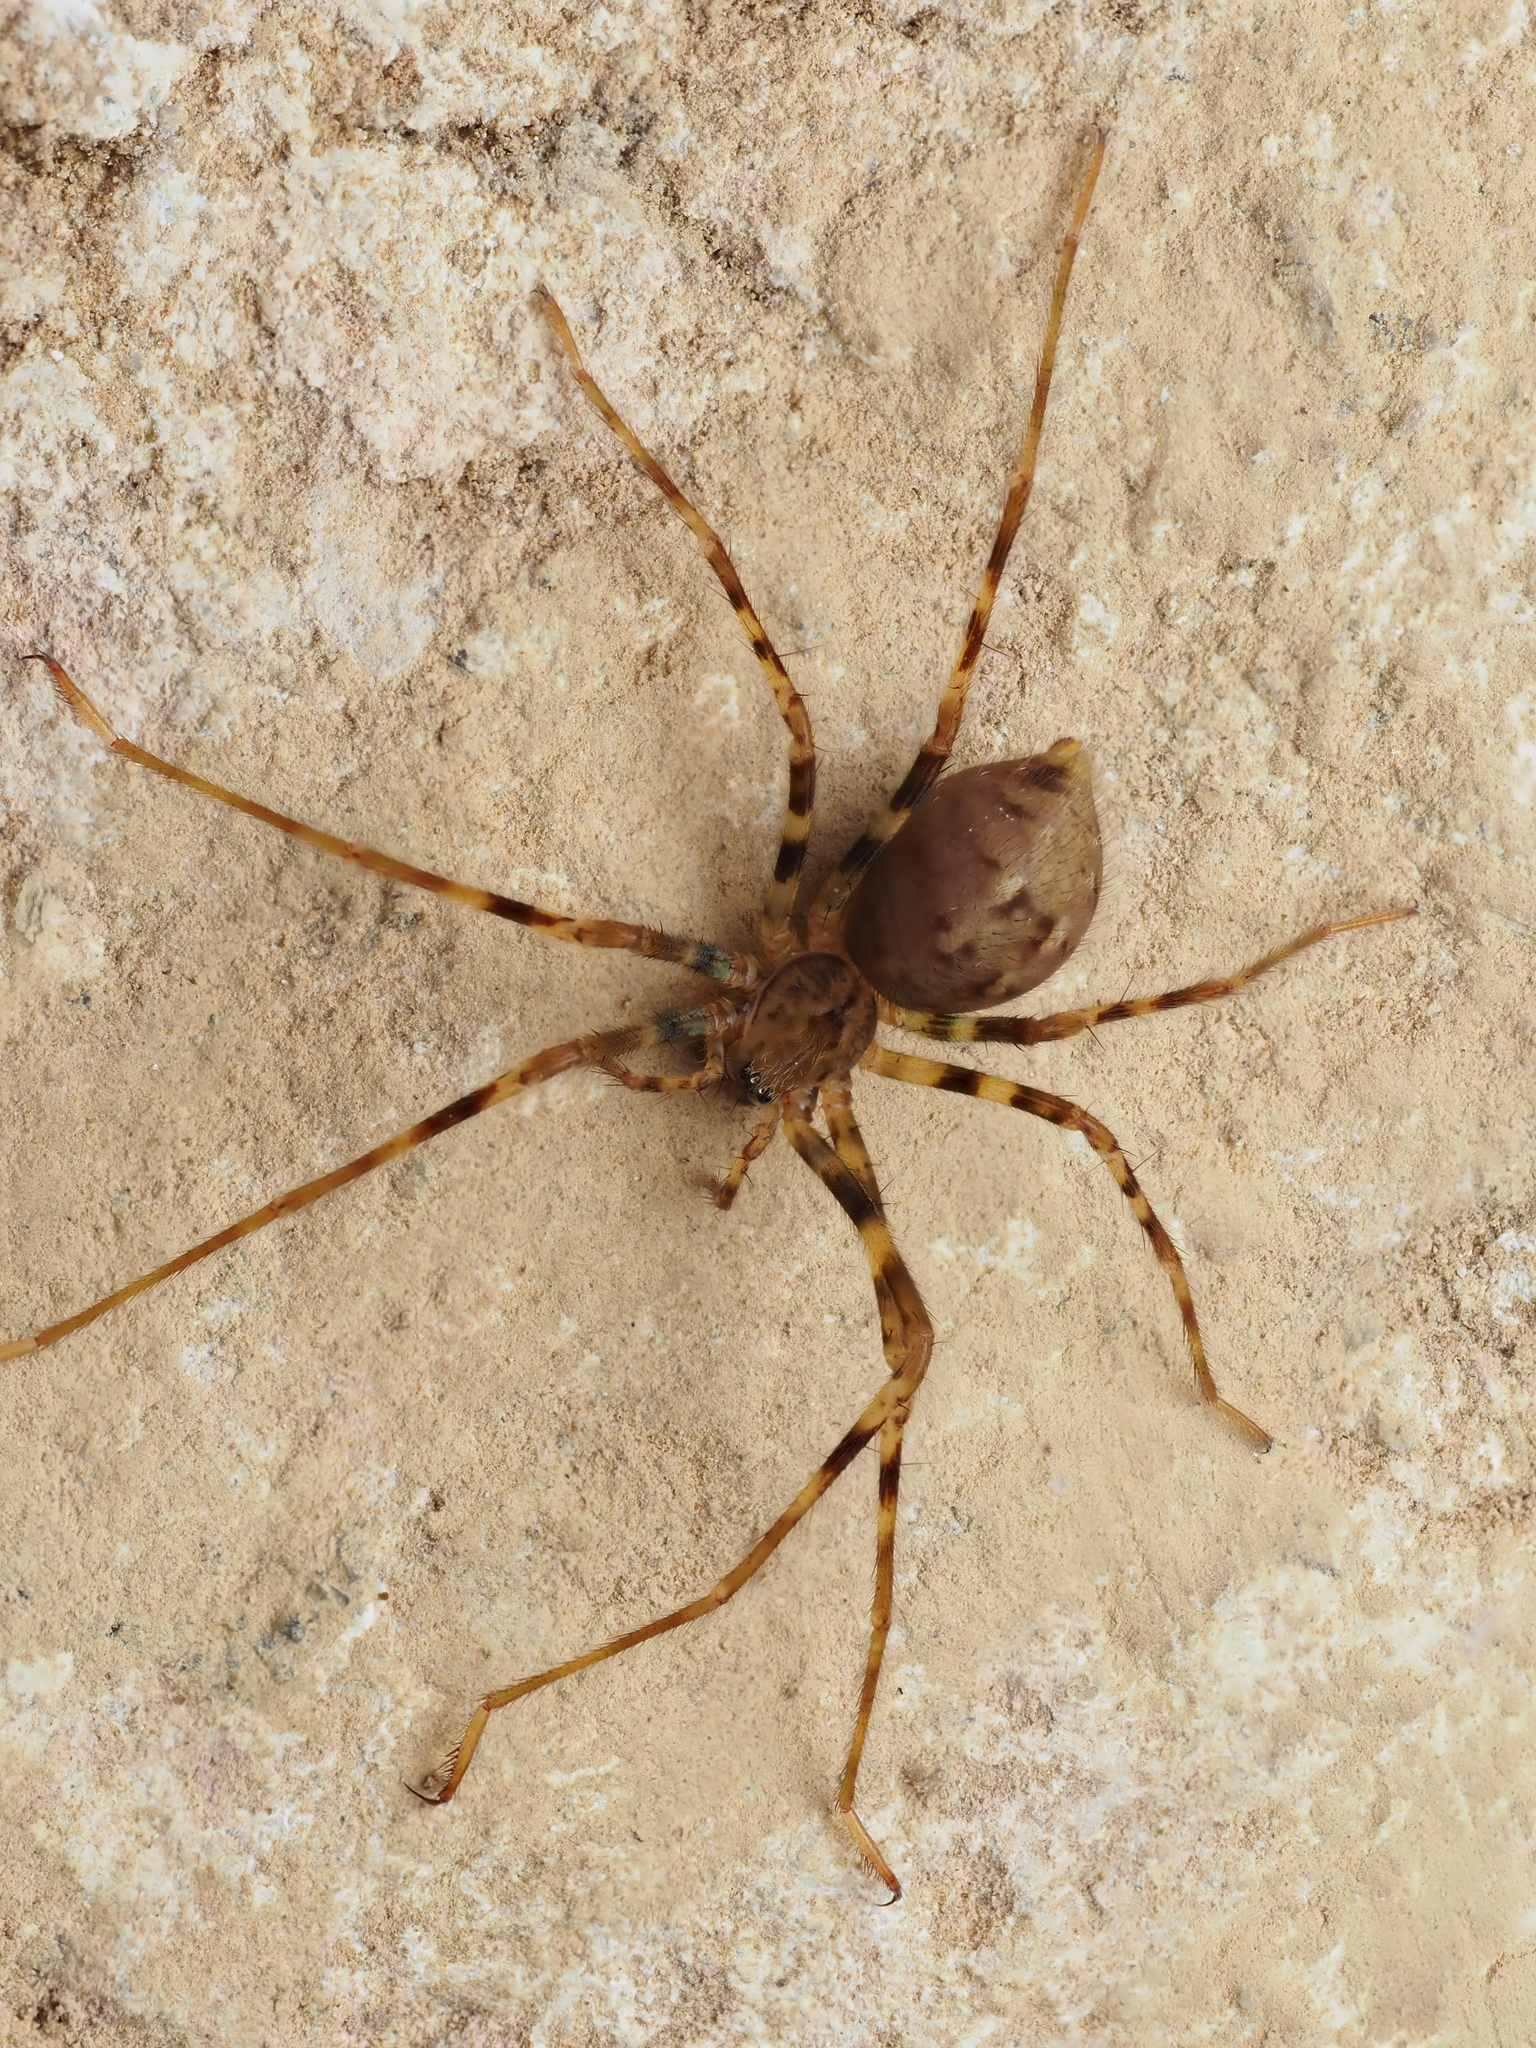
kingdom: Animalia
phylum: Arthropoda
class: Arachnida
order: Araneae
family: Gradungulidae
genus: Spelungula
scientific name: Spelungula cavernicola
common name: Nelson cave spider
